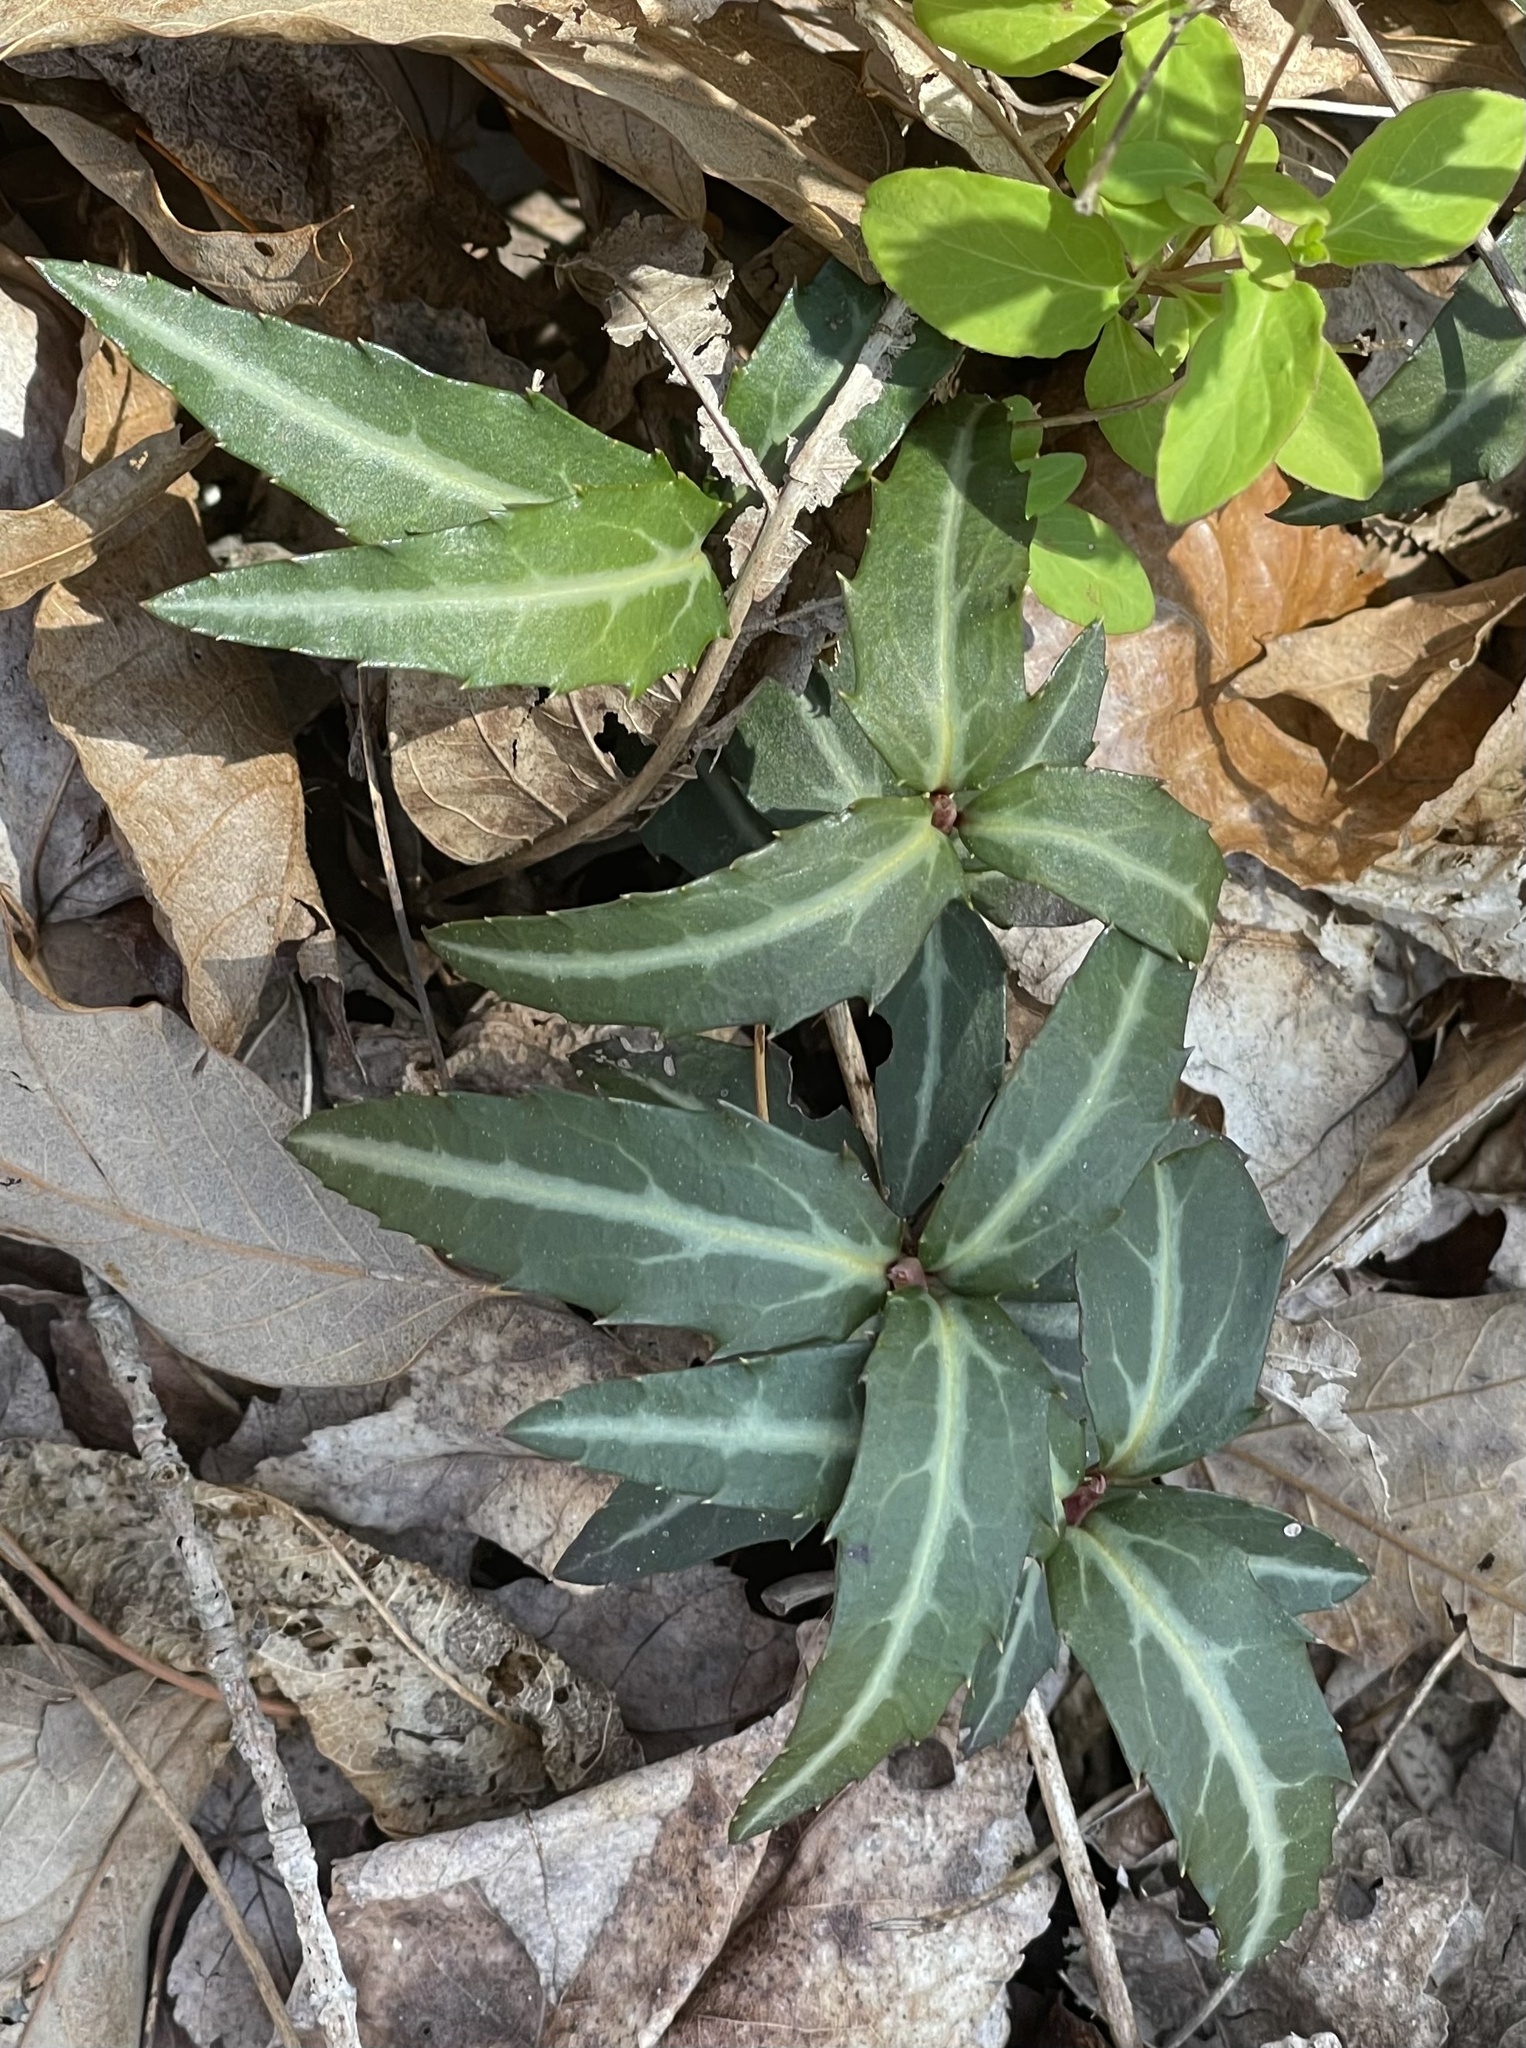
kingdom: Plantae
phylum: Tracheophyta
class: Magnoliopsida
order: Ericales
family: Ericaceae
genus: Chimaphila
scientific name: Chimaphila maculata
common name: Spotted pipsissewa
